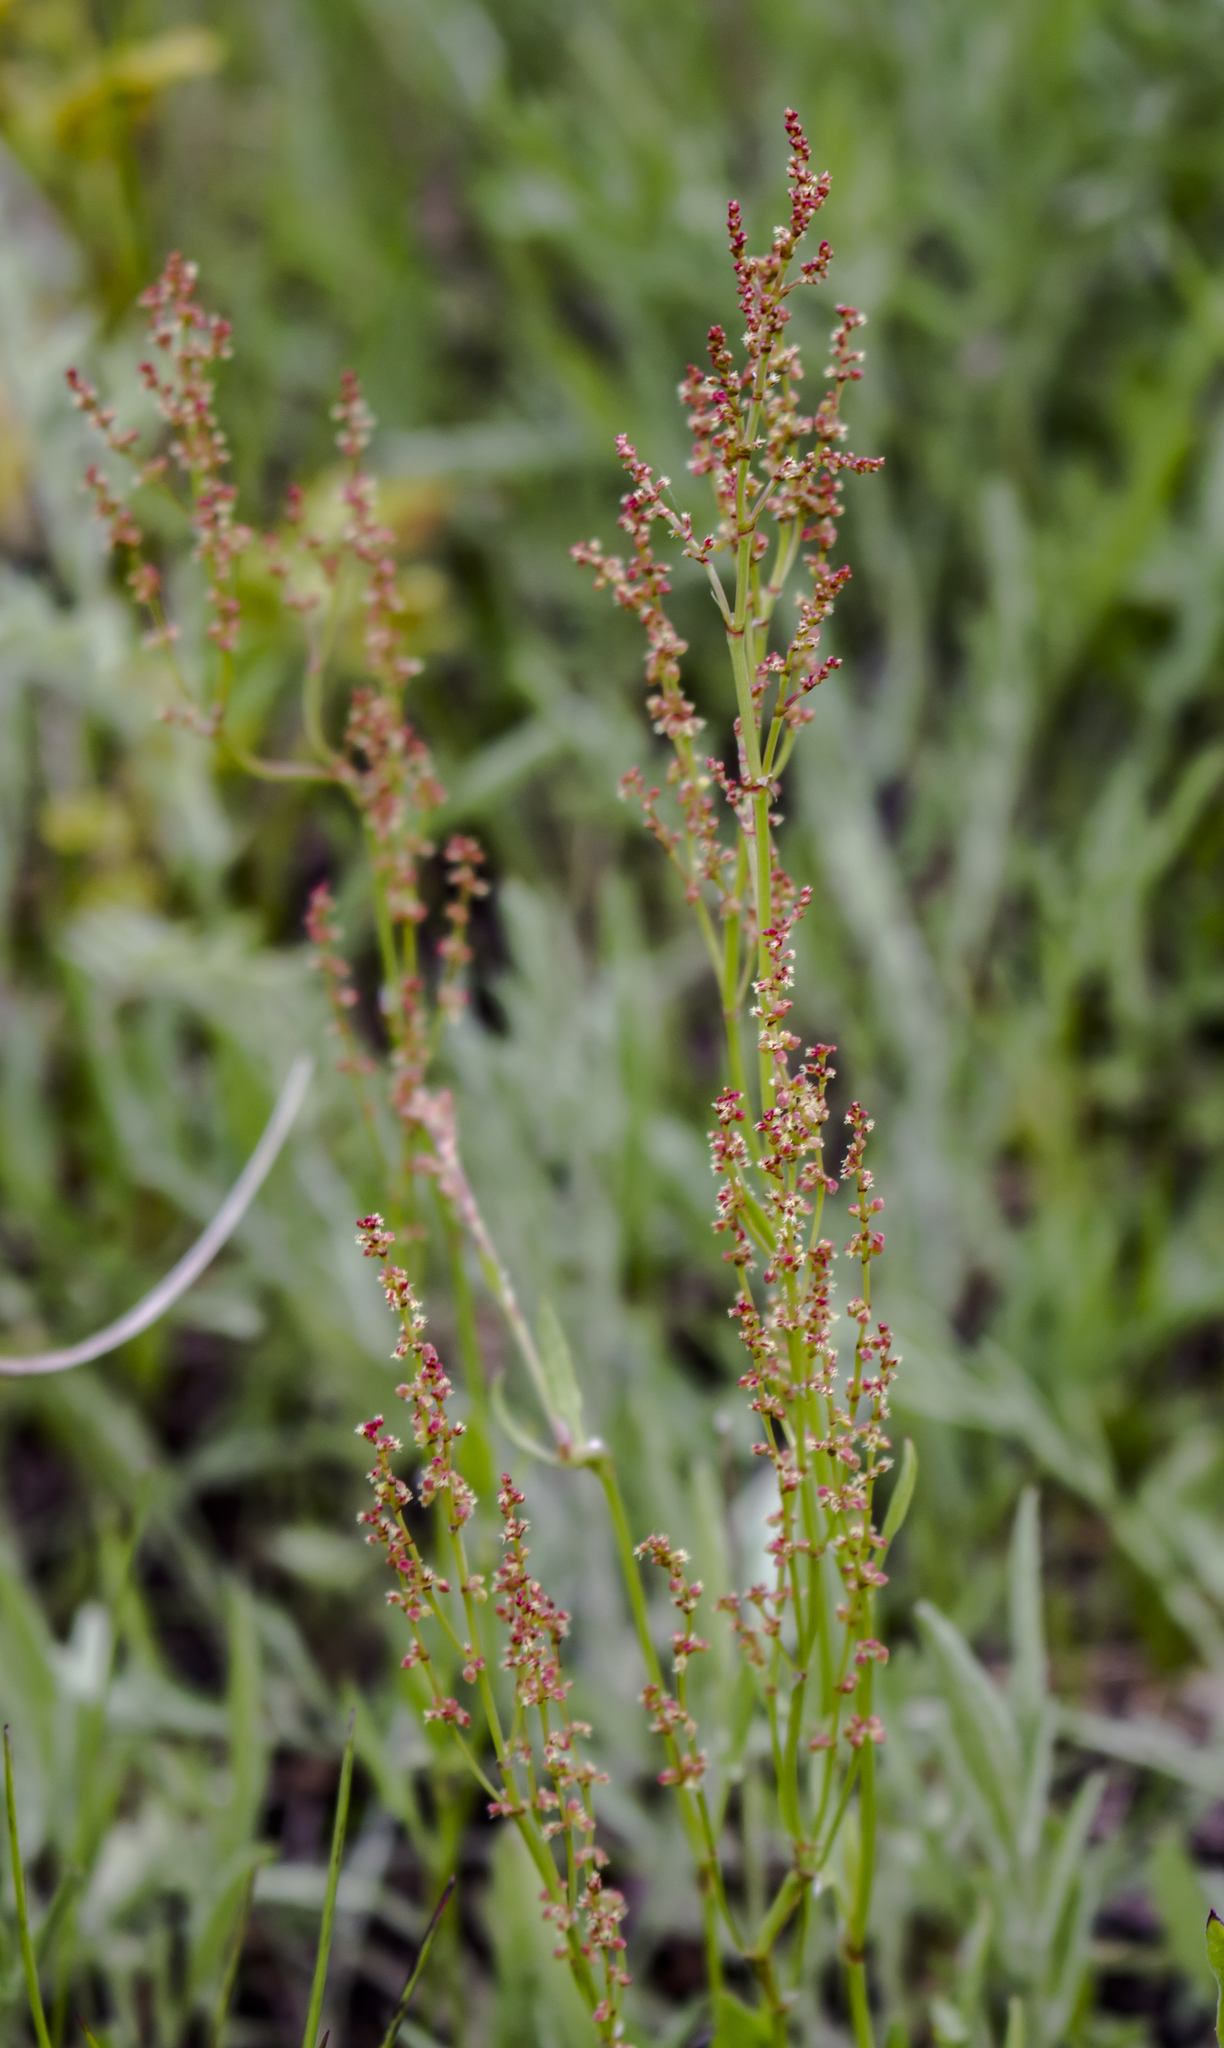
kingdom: Plantae
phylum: Tracheophyta
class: Magnoliopsida
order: Caryophyllales
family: Polygonaceae
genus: Rumex
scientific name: Rumex acetosella
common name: Common sheep sorrel
